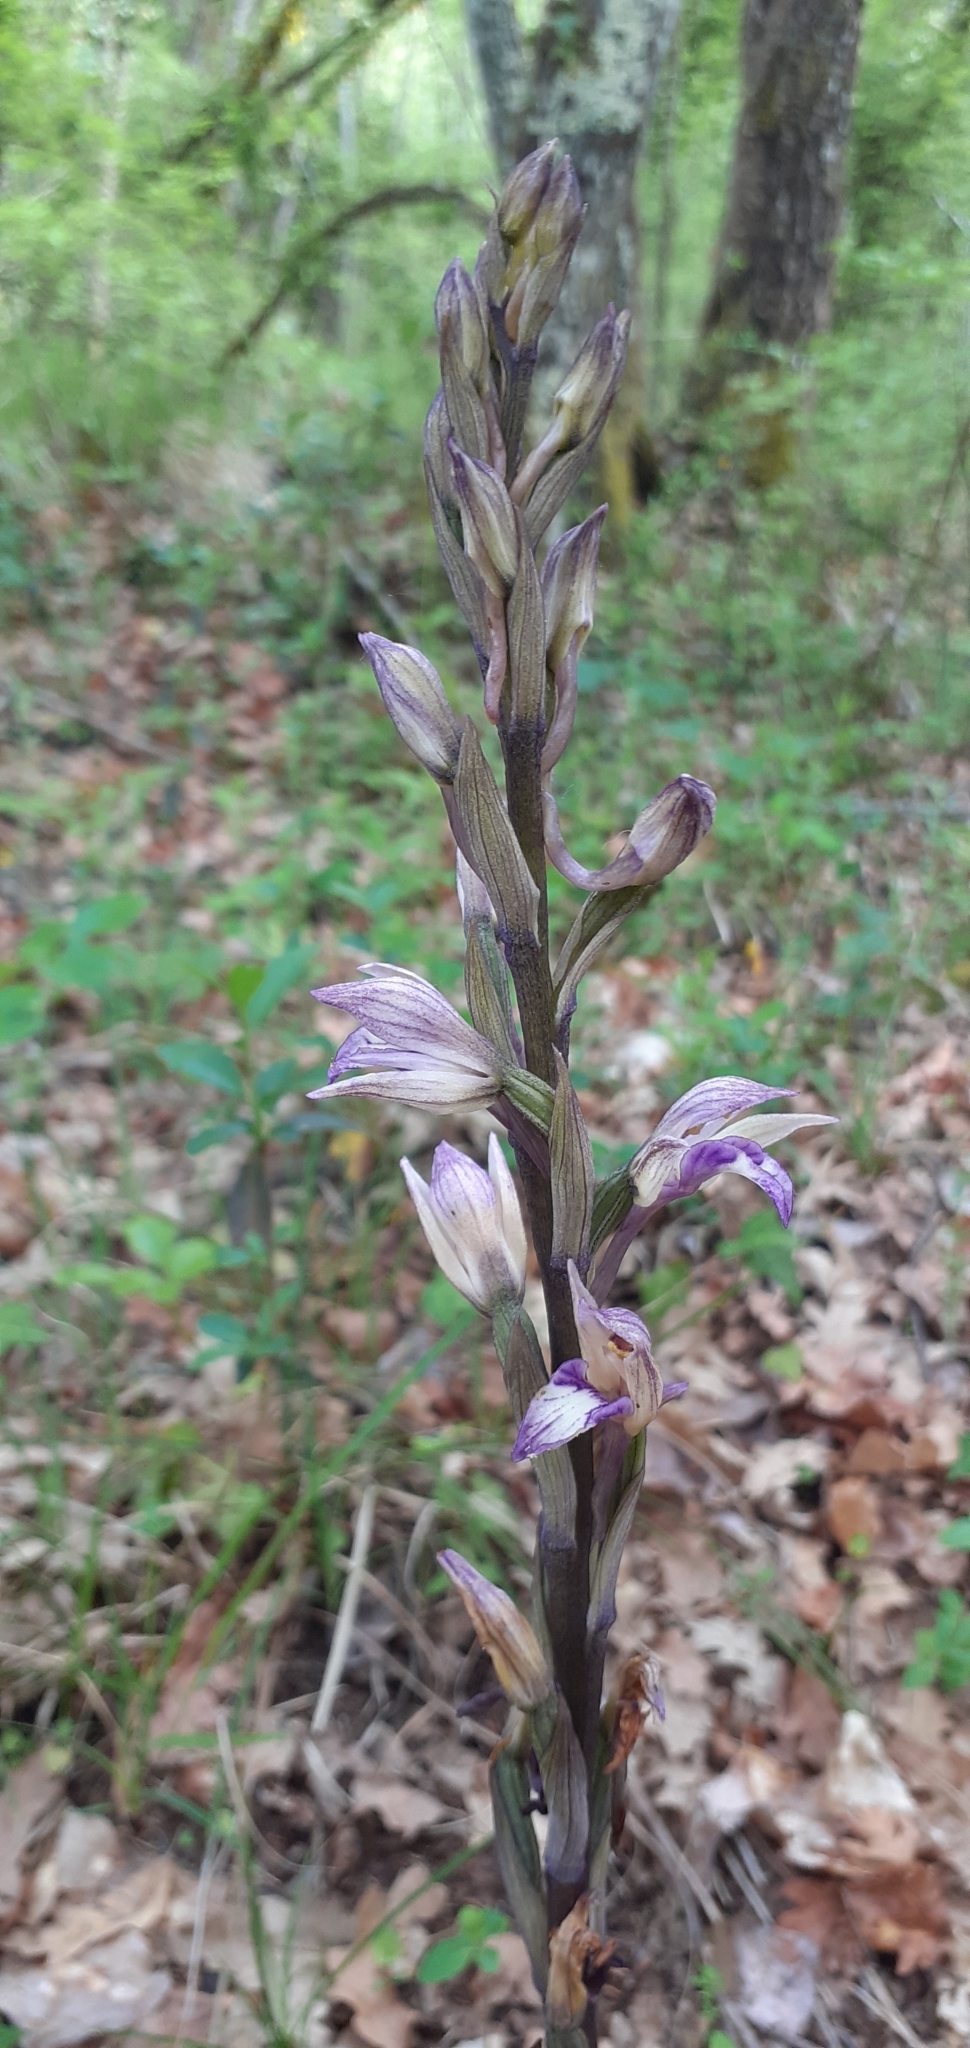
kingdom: Plantae
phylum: Tracheophyta
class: Liliopsida
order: Asparagales
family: Orchidaceae
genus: Limodorum
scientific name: Limodorum abortivum
